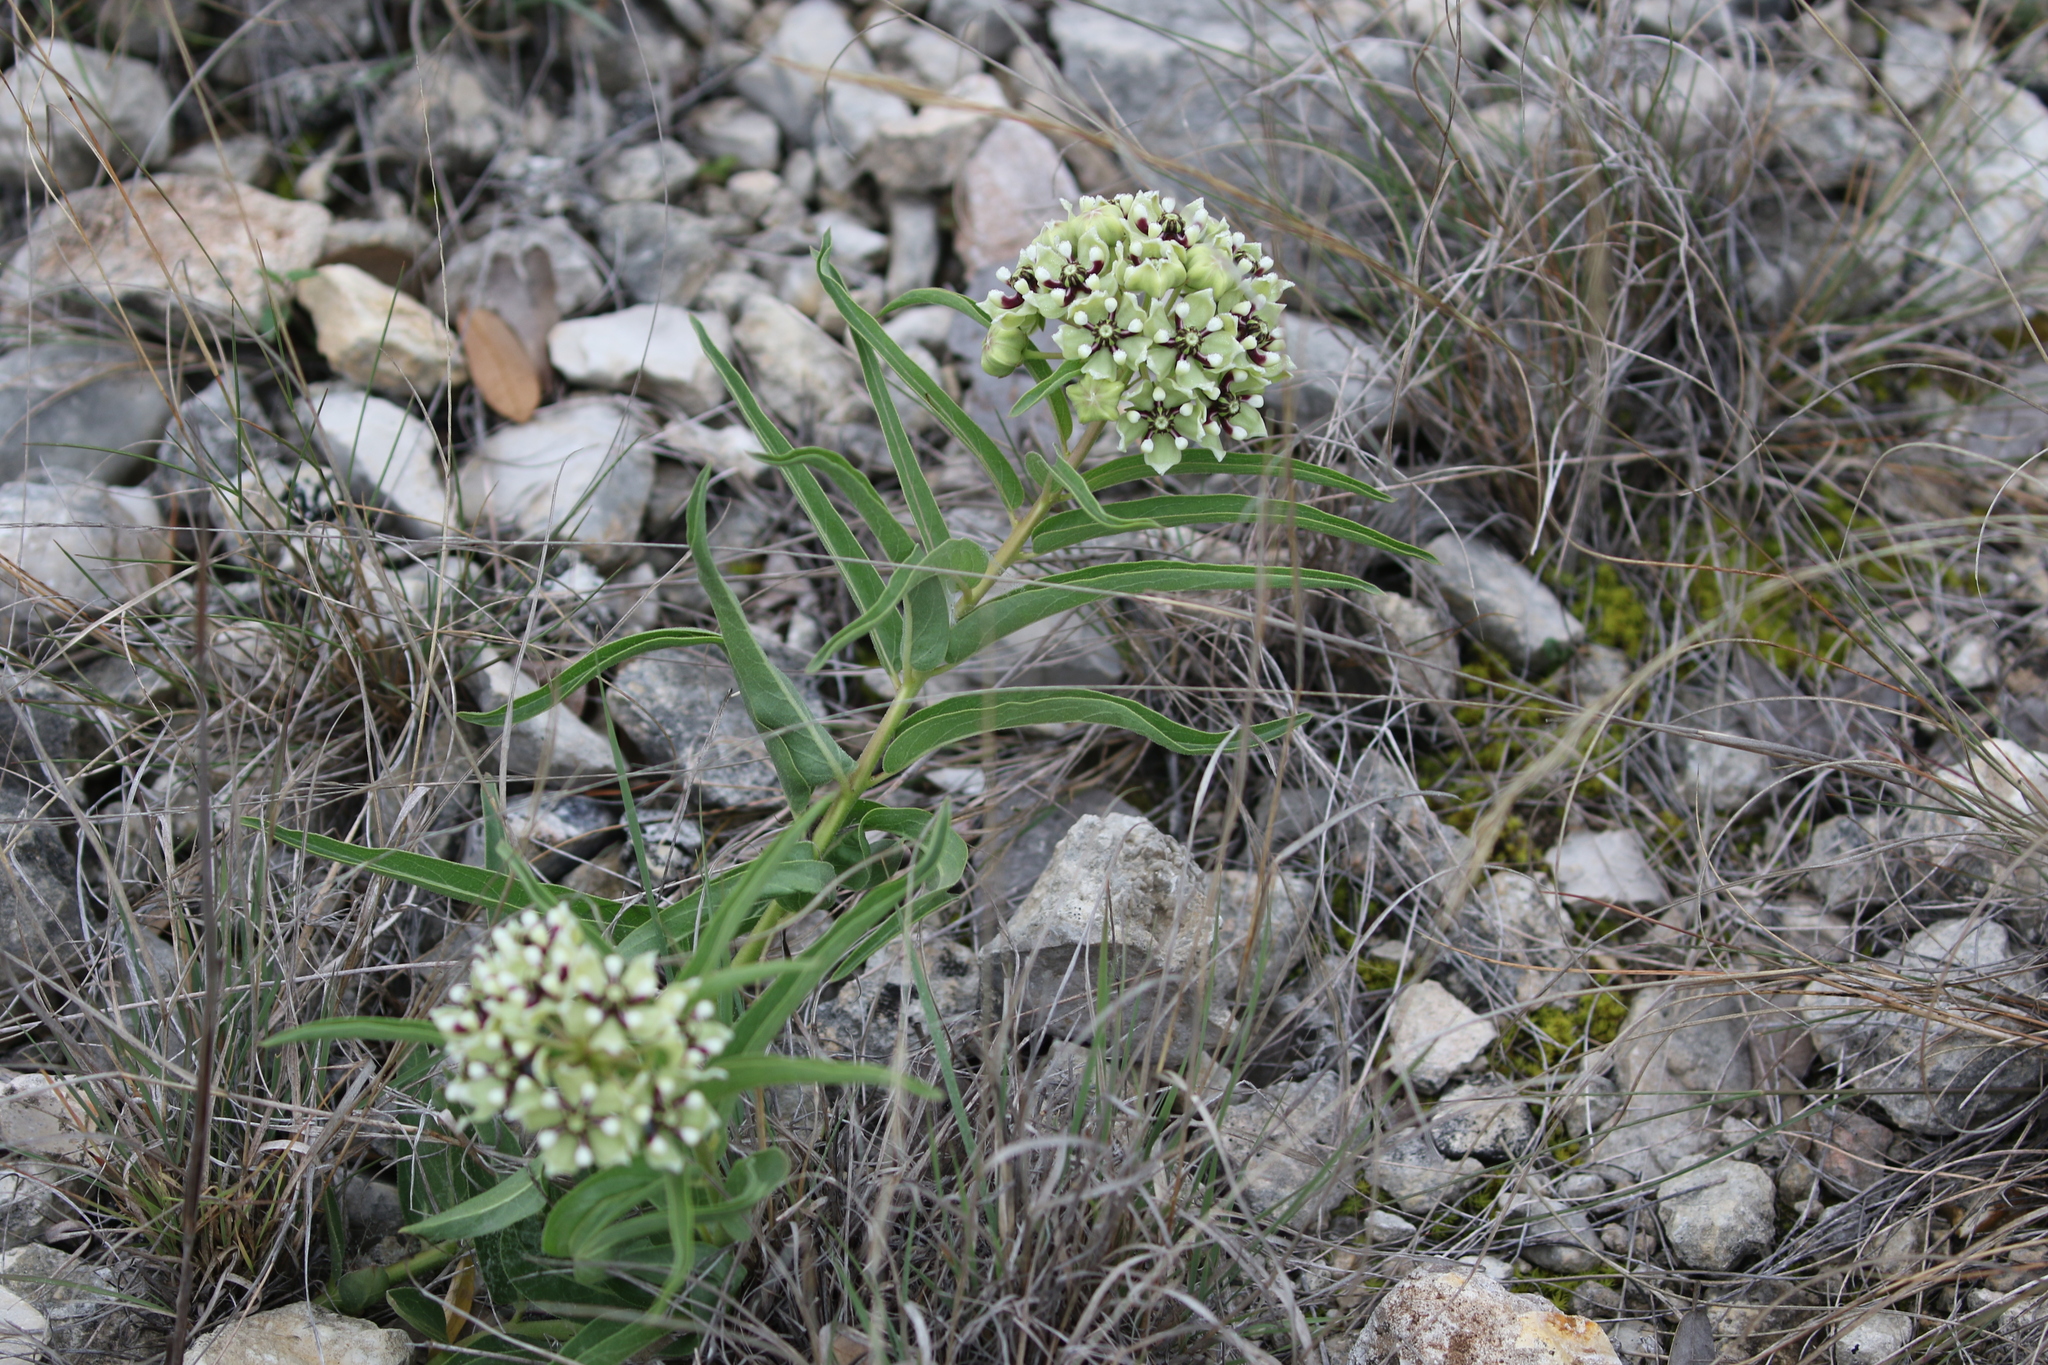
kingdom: Plantae
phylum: Tracheophyta
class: Magnoliopsida
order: Gentianales
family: Apocynaceae
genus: Asclepias
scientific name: Asclepias asperula
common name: Antelope horns
